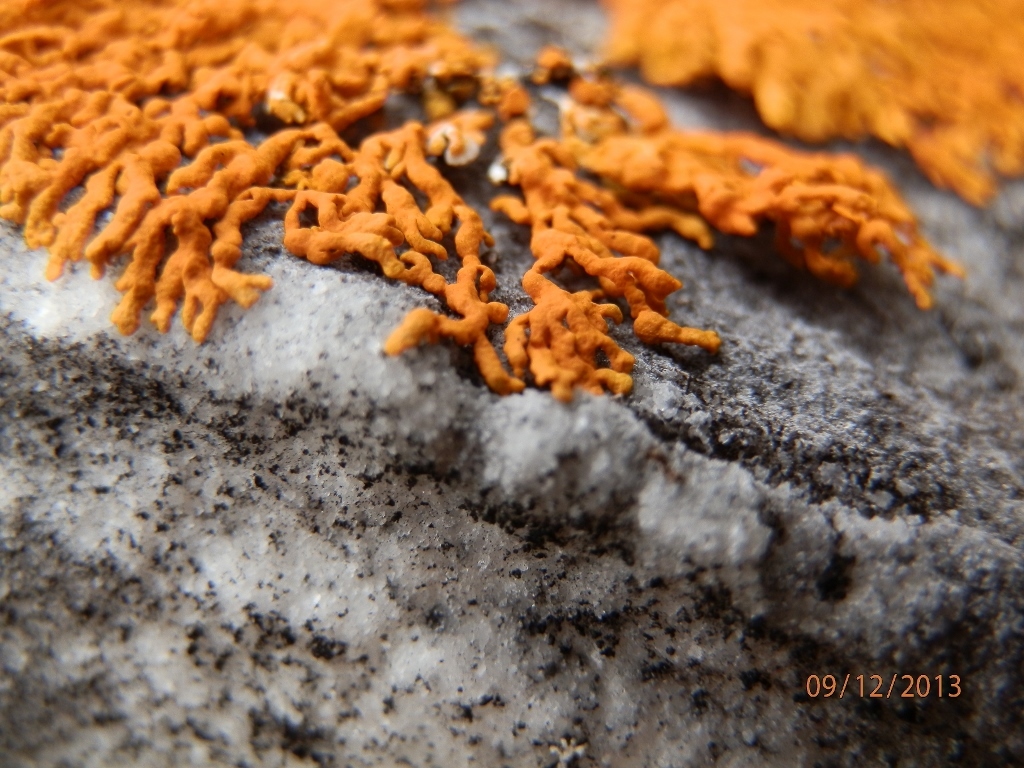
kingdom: Fungi
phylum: Ascomycota
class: Lecanoromycetes
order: Teloschistales
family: Teloschistaceae
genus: Xanthoria
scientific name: Xanthoria elegans
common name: Elegant sunburst lichen
